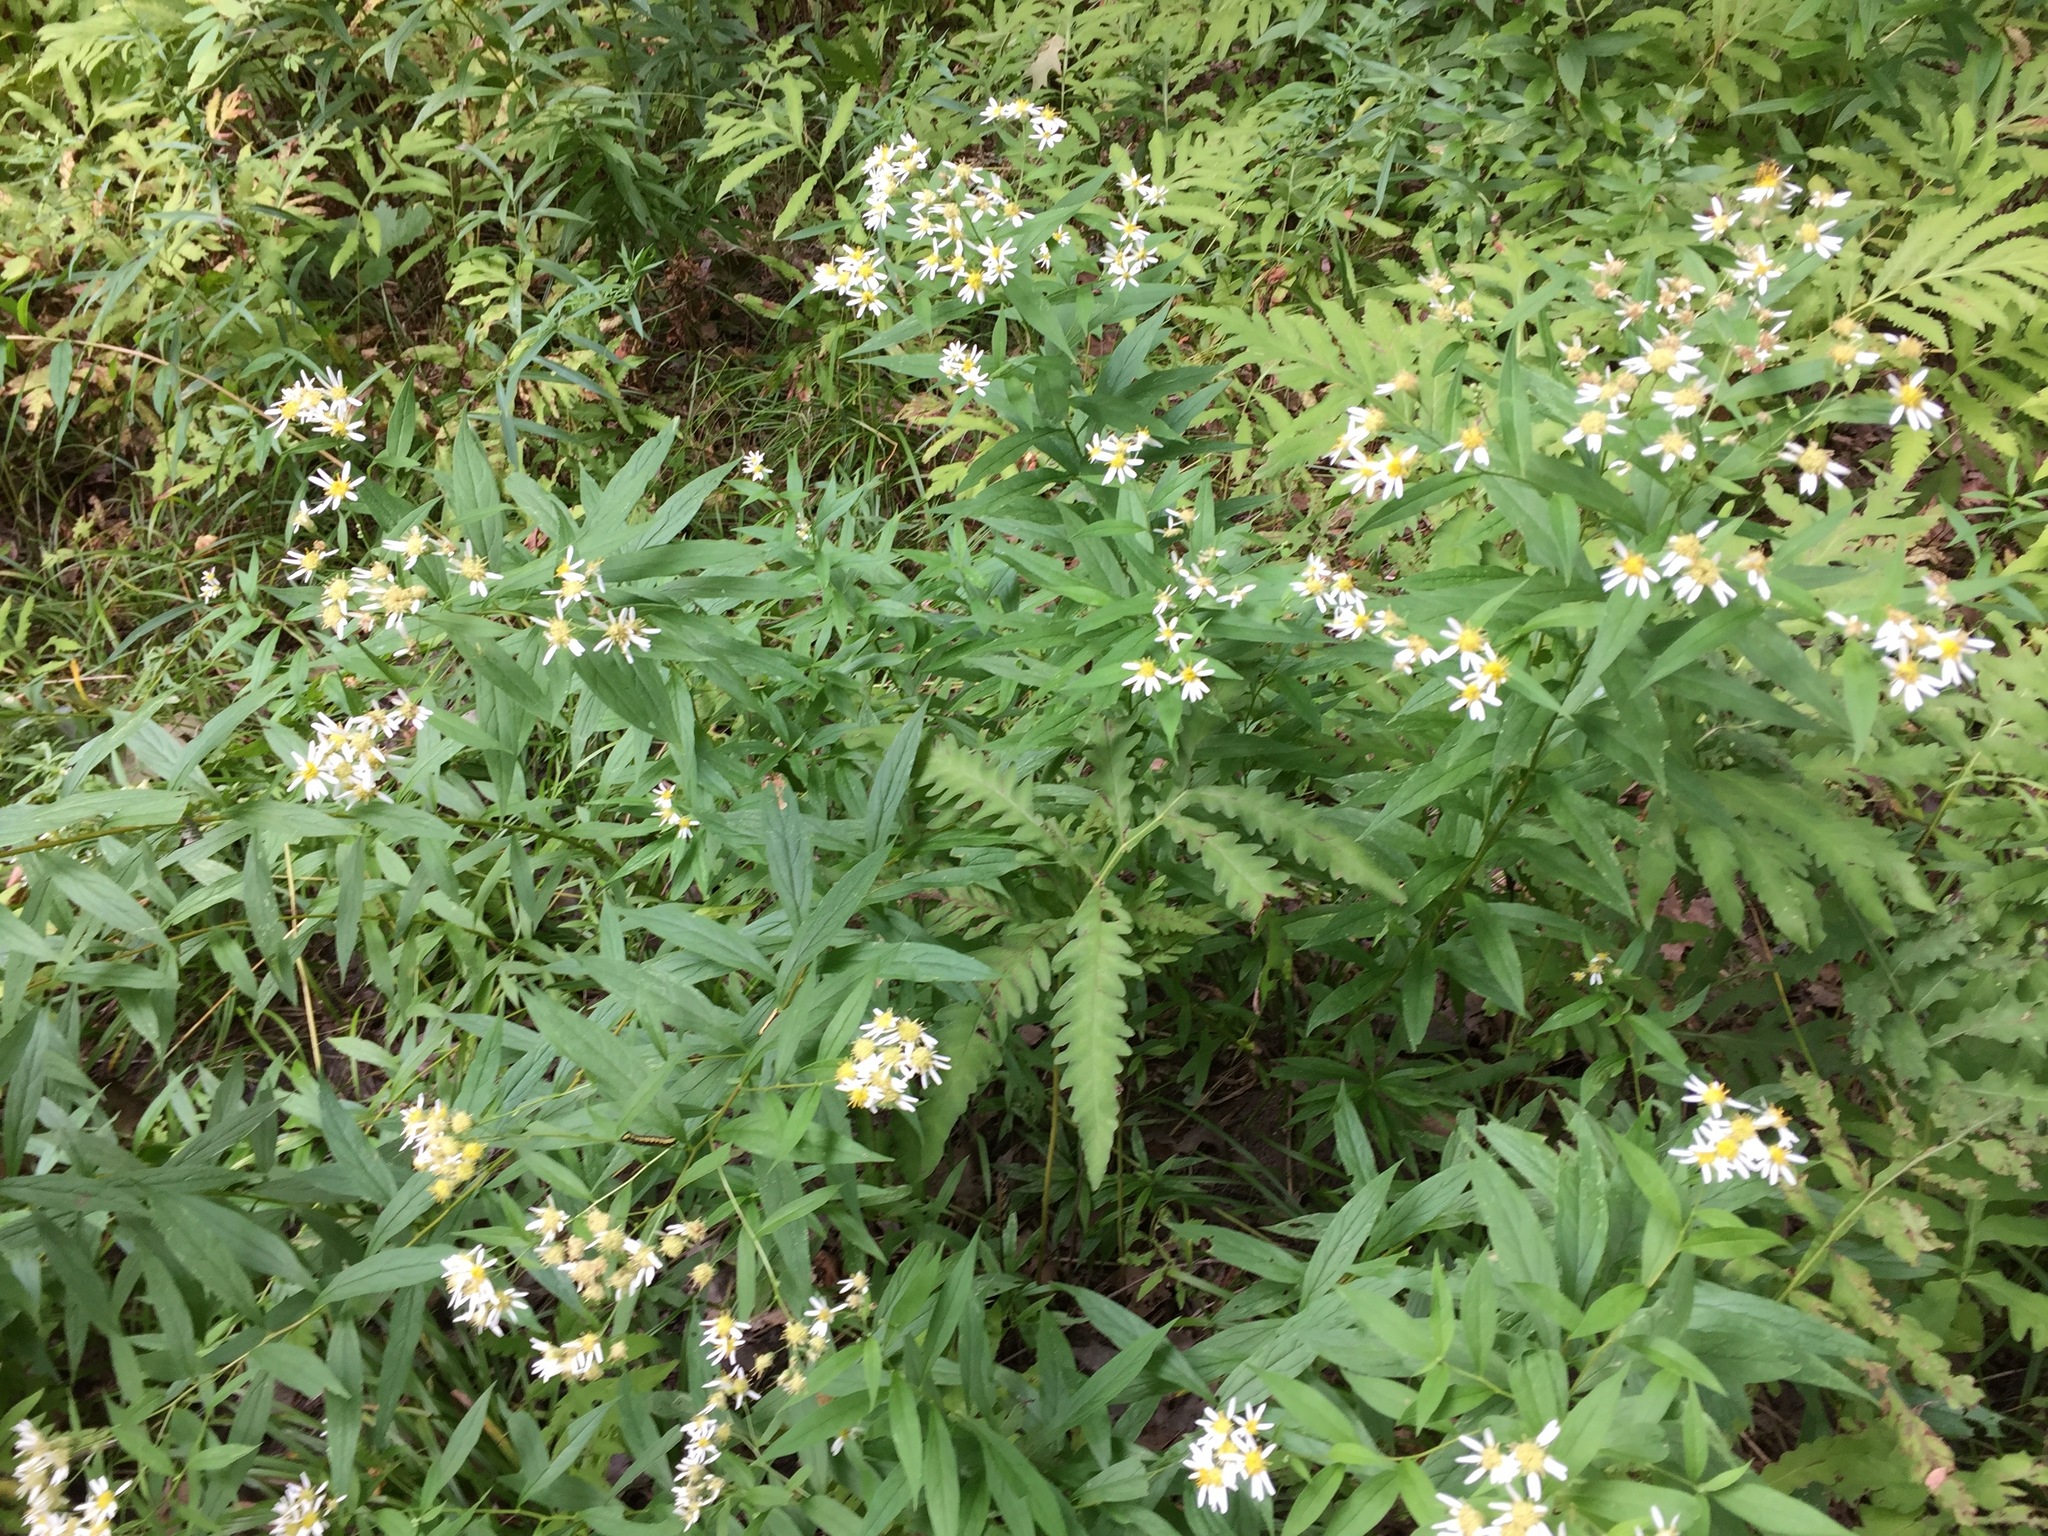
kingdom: Plantae
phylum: Tracheophyta
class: Magnoliopsida
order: Asterales
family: Asteraceae
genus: Doellingeria
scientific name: Doellingeria umbellata
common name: Flat-top white aster
